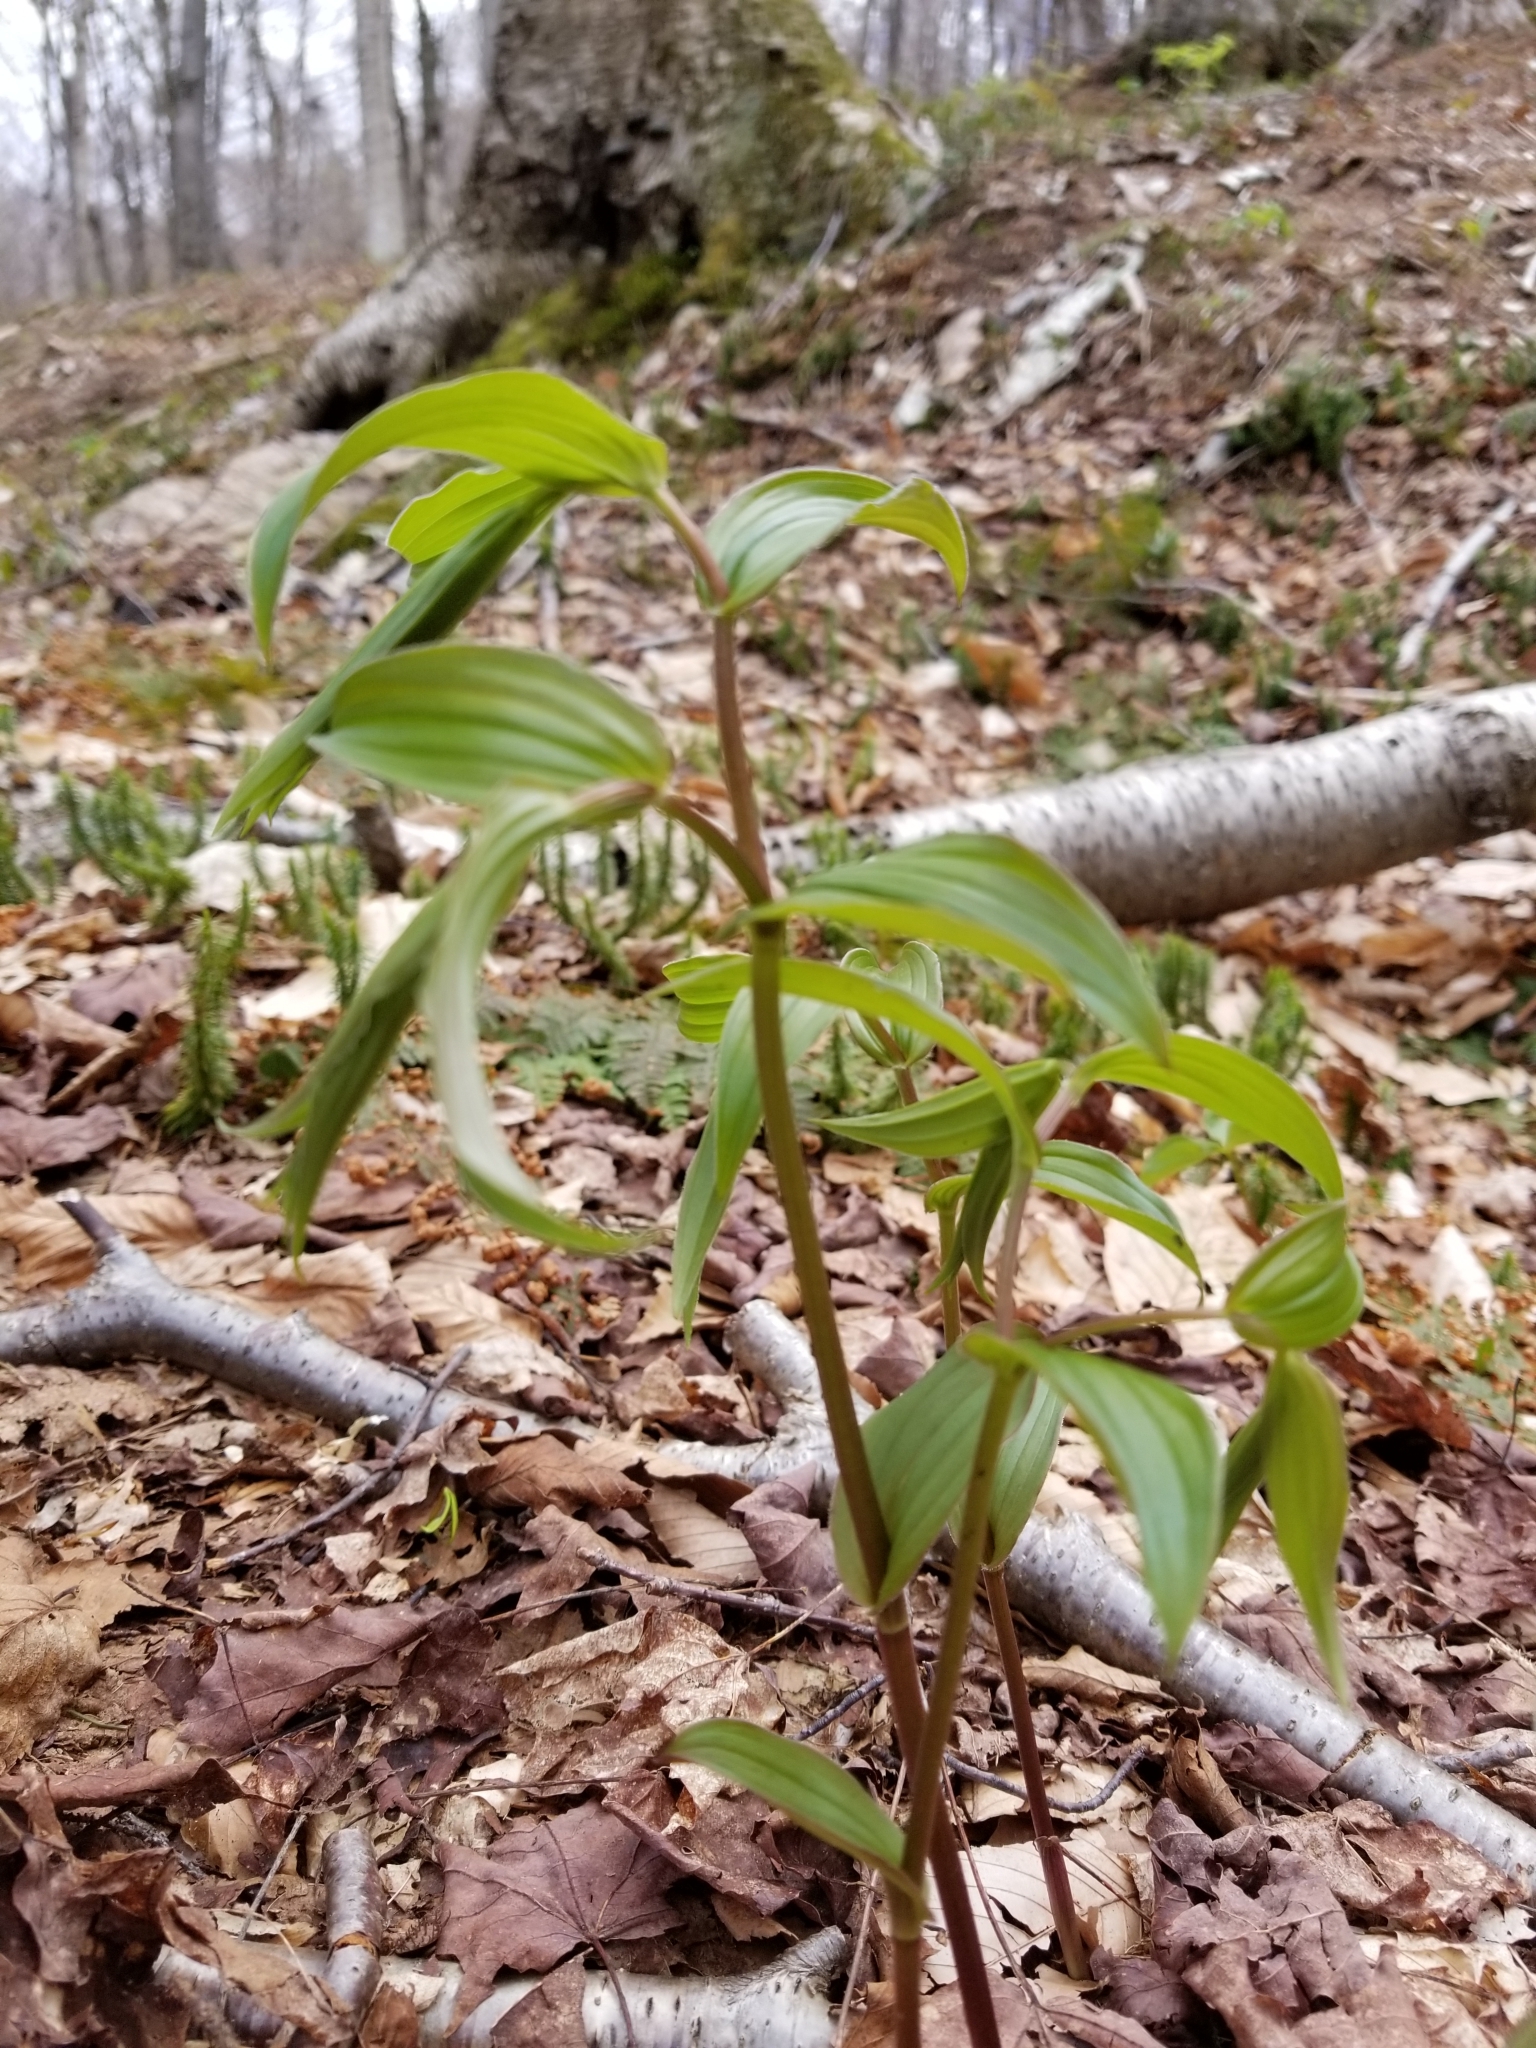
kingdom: Plantae
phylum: Tracheophyta
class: Liliopsida
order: Liliales
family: Liliaceae
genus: Streptopus
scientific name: Streptopus lanceolatus
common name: Rose mandarin
